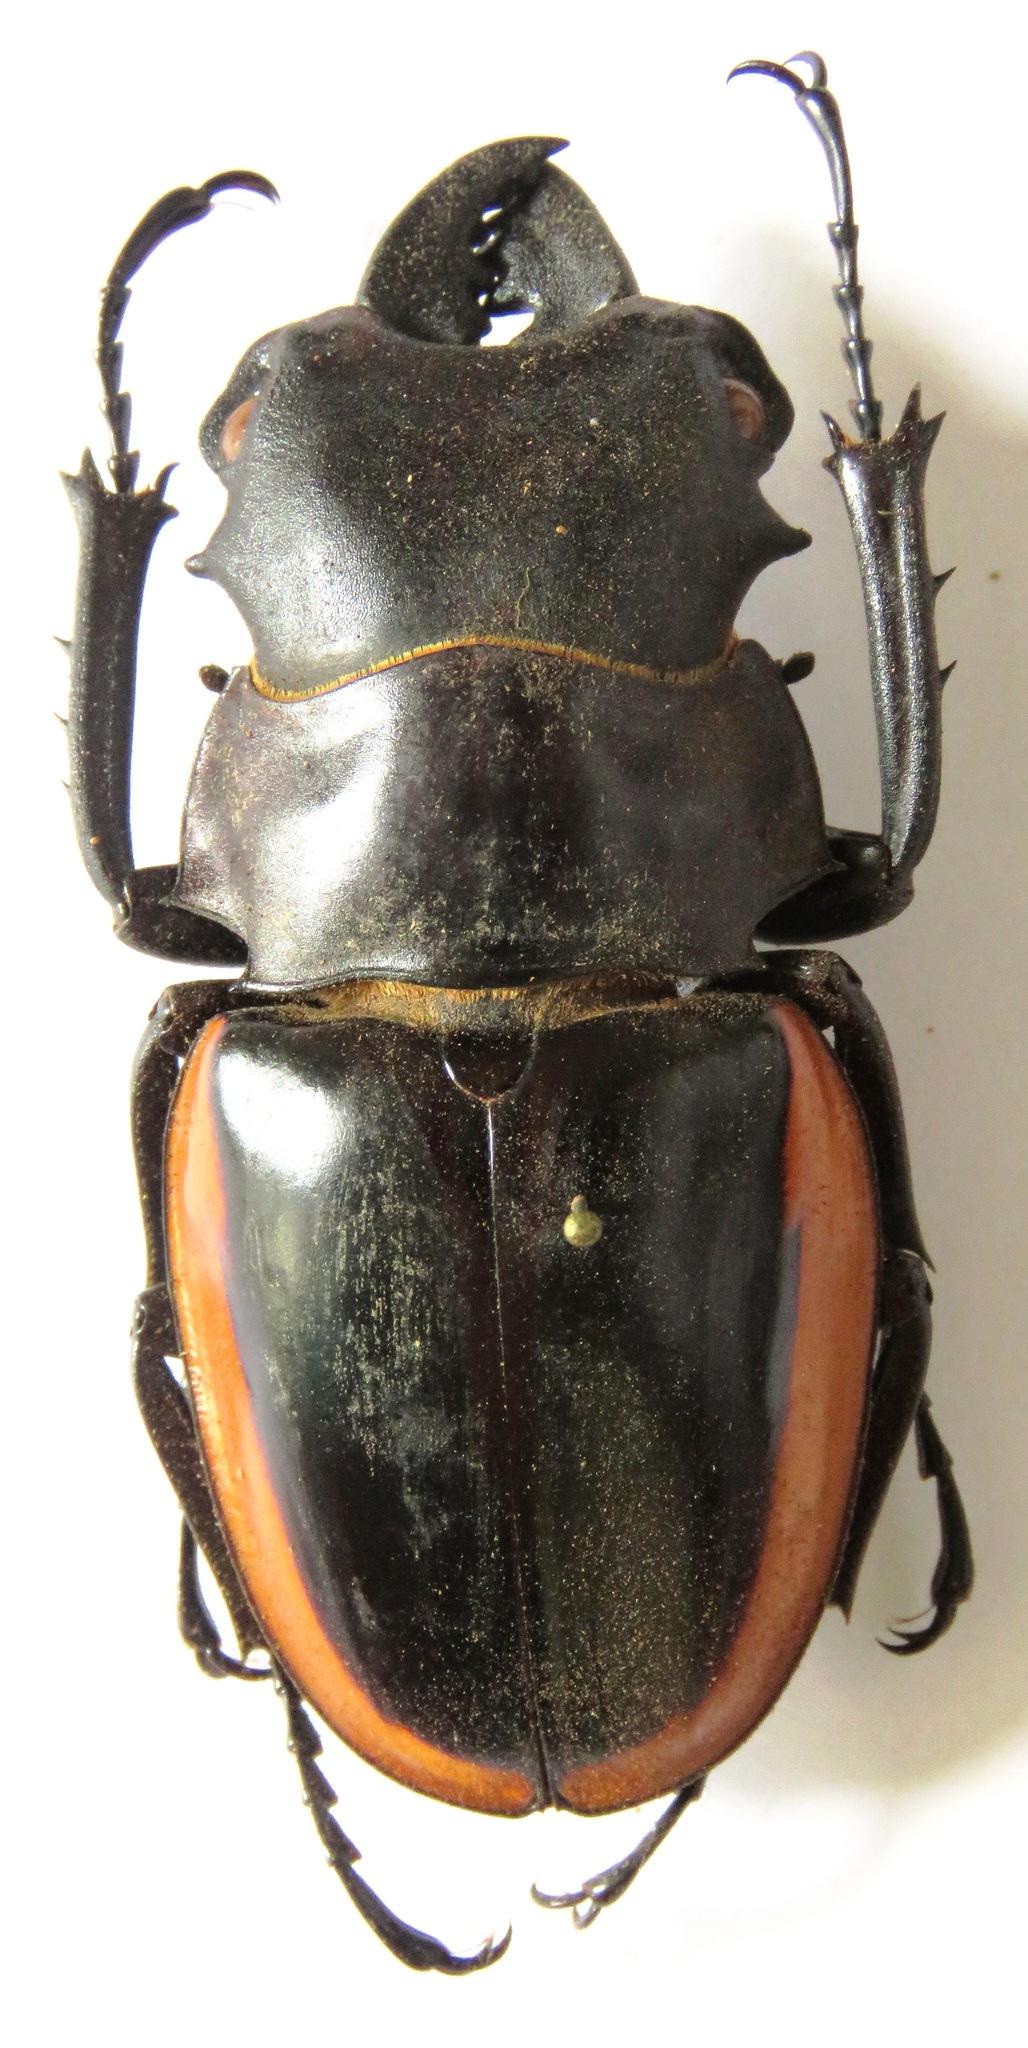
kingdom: Animalia
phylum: Arthropoda
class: Insecta
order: Coleoptera
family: Lucanidae
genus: Odontolabis
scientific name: Odontolabis cuvera
